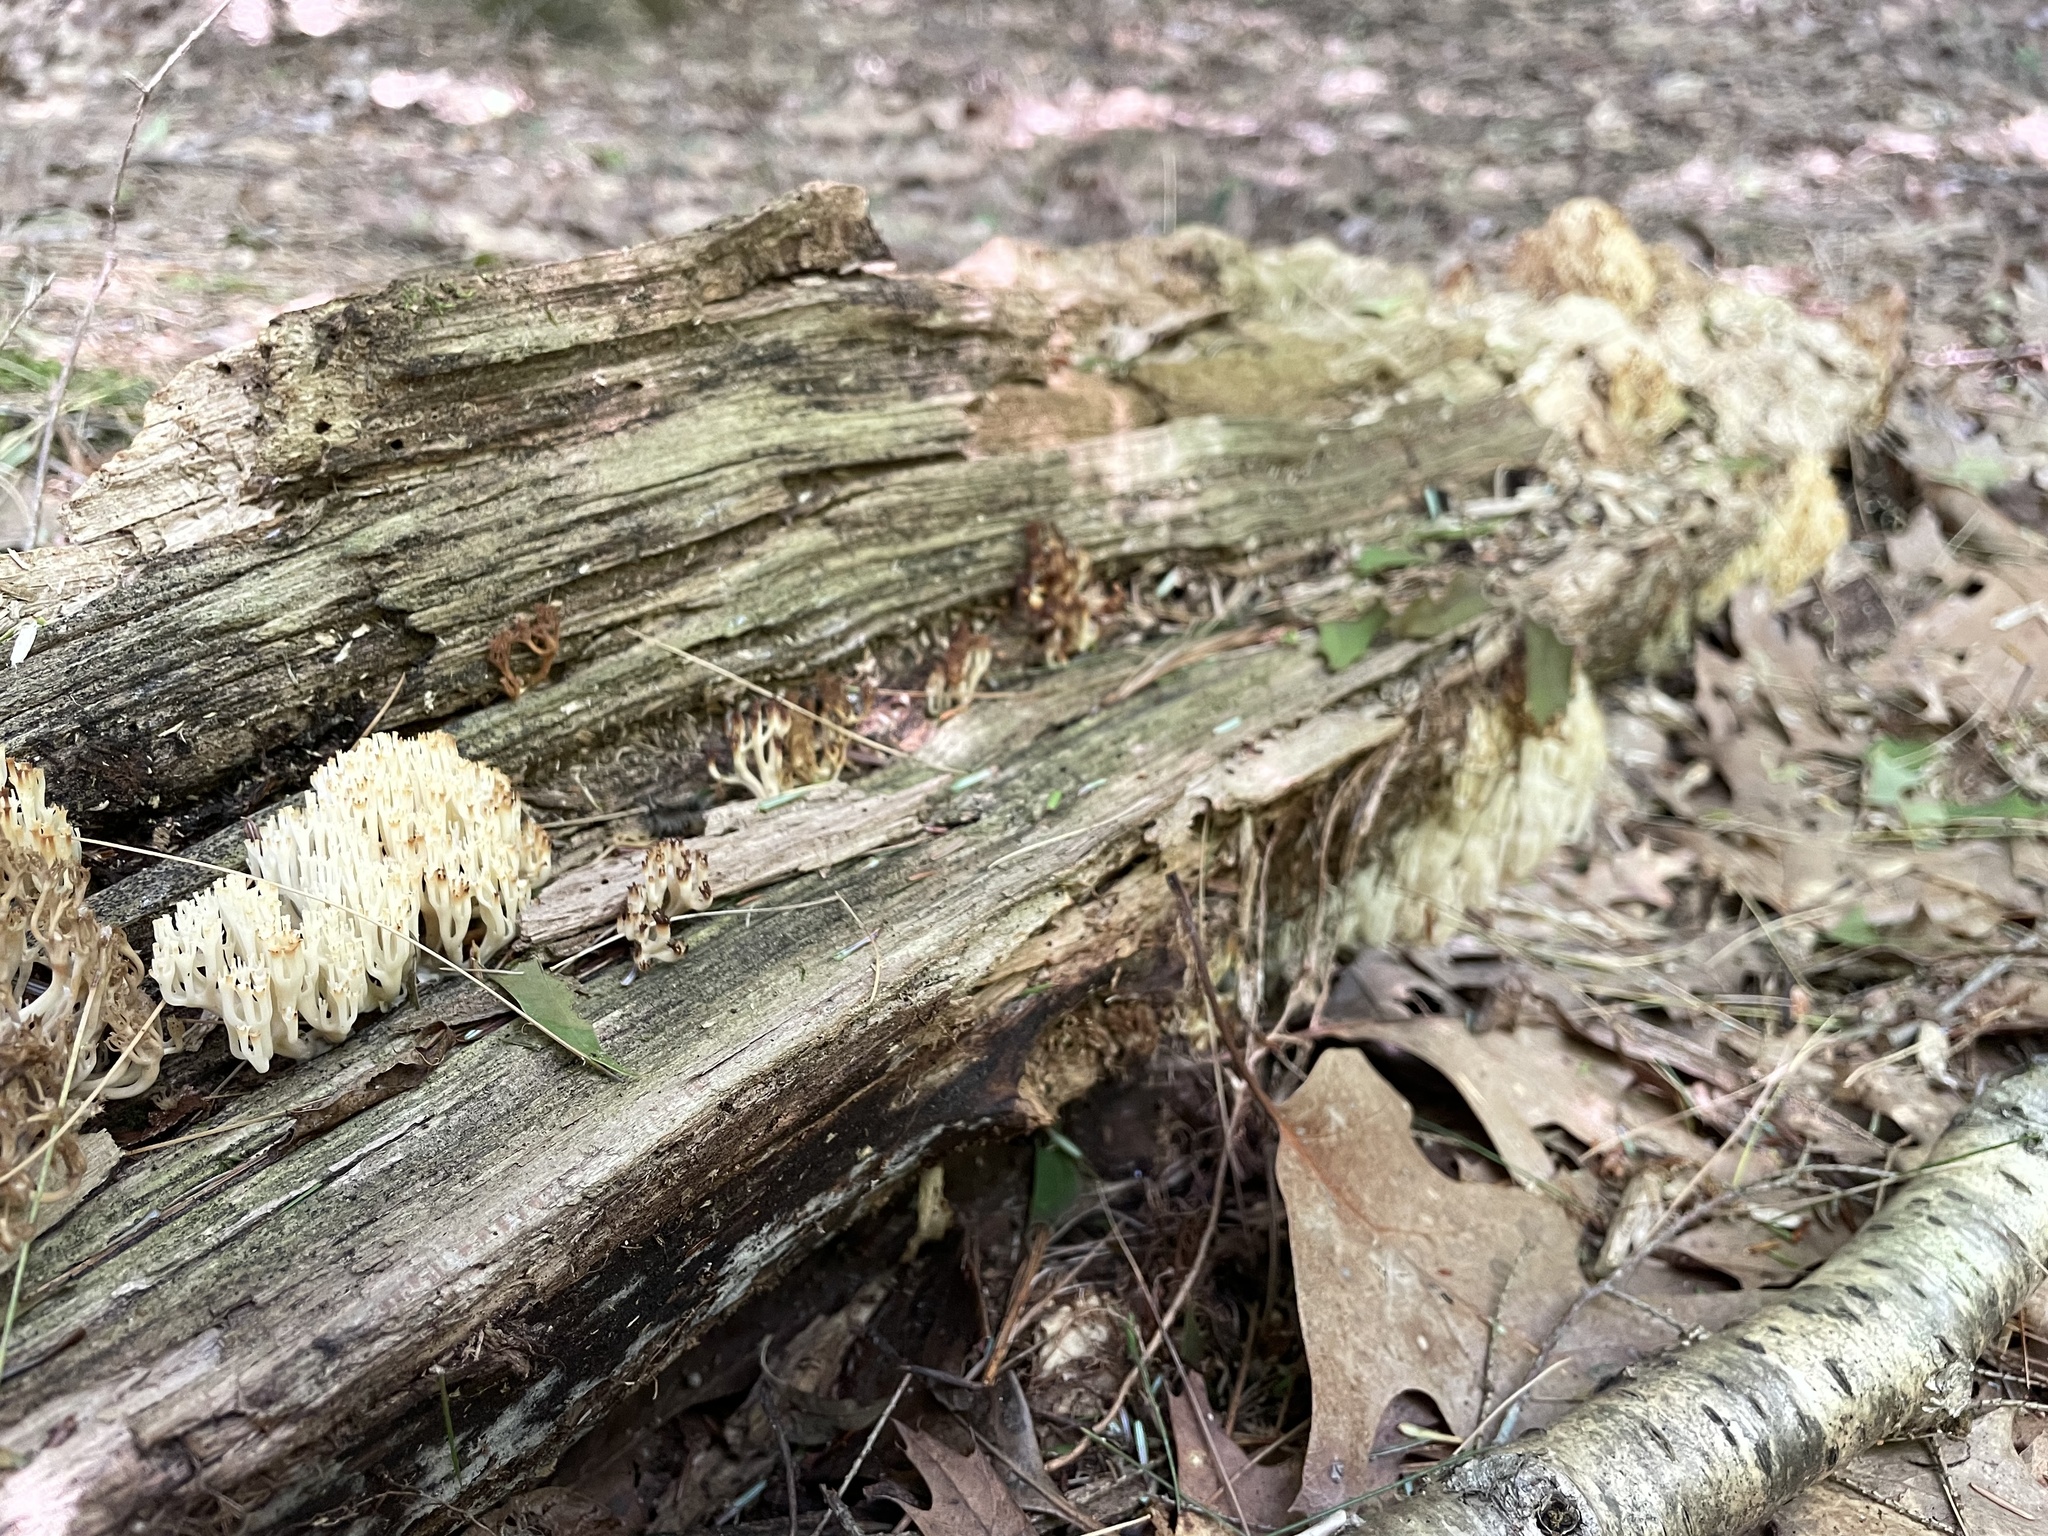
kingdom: Fungi
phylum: Basidiomycota
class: Agaricomycetes
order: Russulales
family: Auriscalpiaceae
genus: Artomyces
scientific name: Artomyces pyxidatus
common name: Crown-tipped coral fungus
